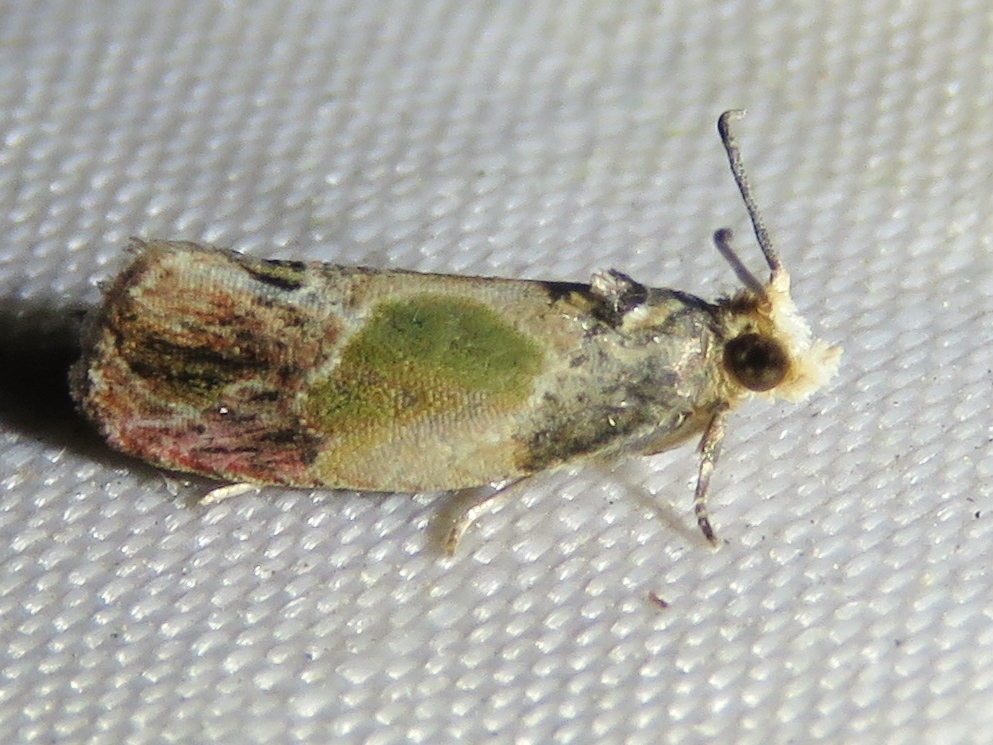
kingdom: Animalia
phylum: Arthropoda
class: Insecta
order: Lepidoptera
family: Tortricidae
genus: Eumarozia
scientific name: Eumarozia malachitana
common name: Sculptured moth
